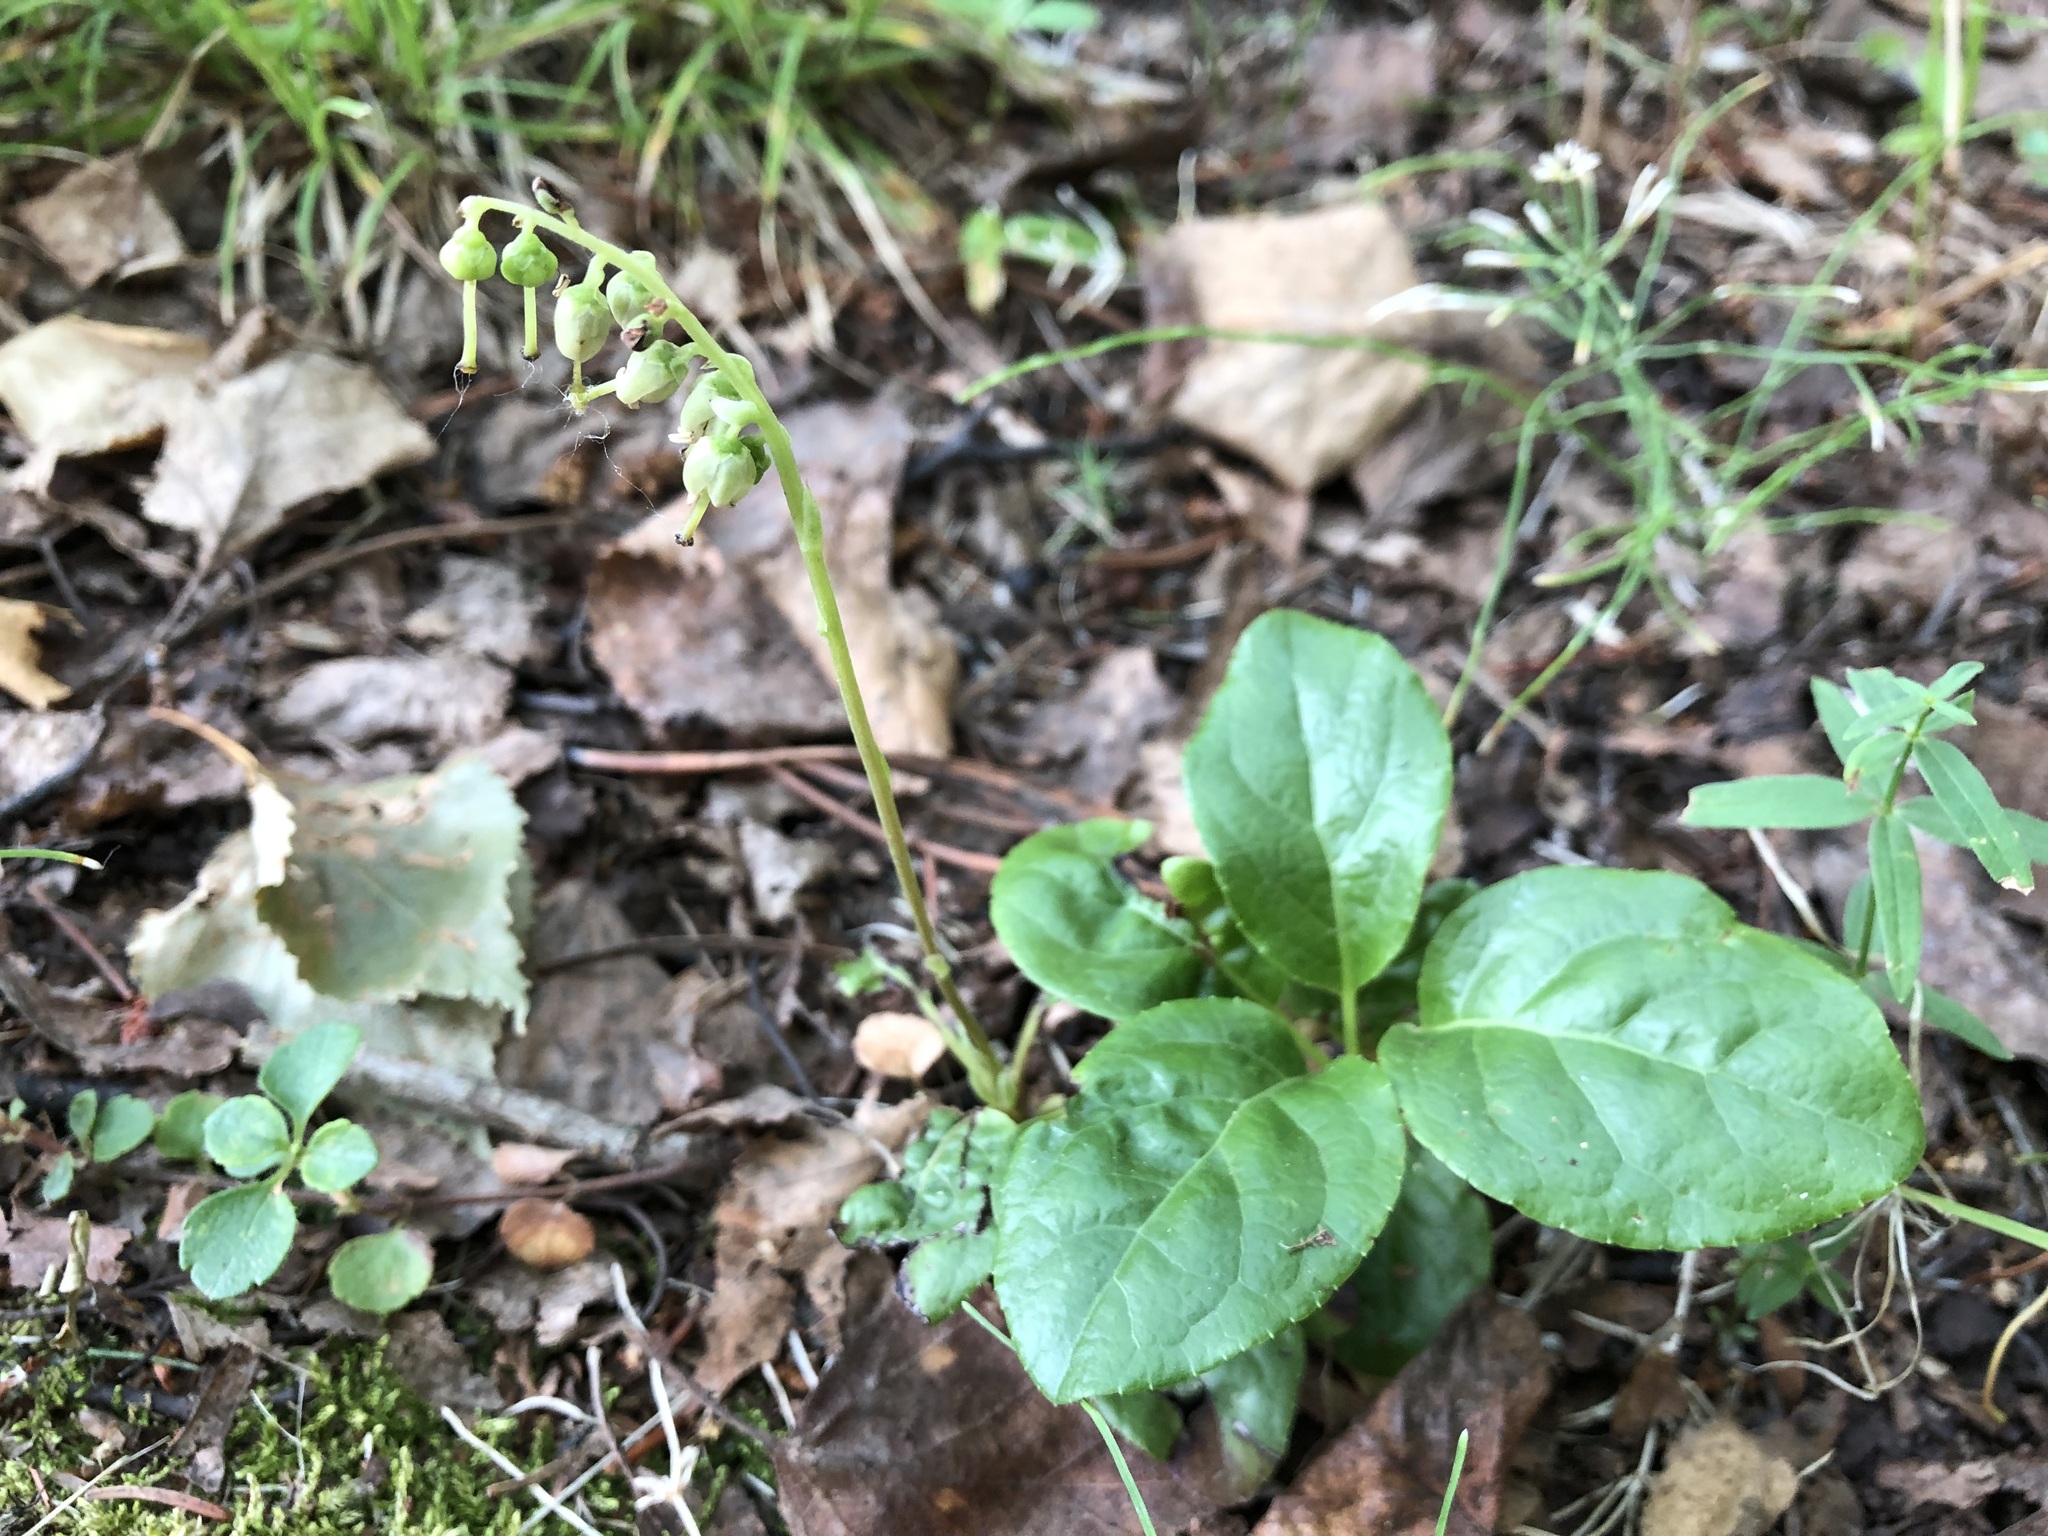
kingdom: Plantae
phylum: Tracheophyta
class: Magnoliopsida
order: Ericales
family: Ericaceae
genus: Orthilia
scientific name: Orthilia secunda
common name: One-sided orthilia
